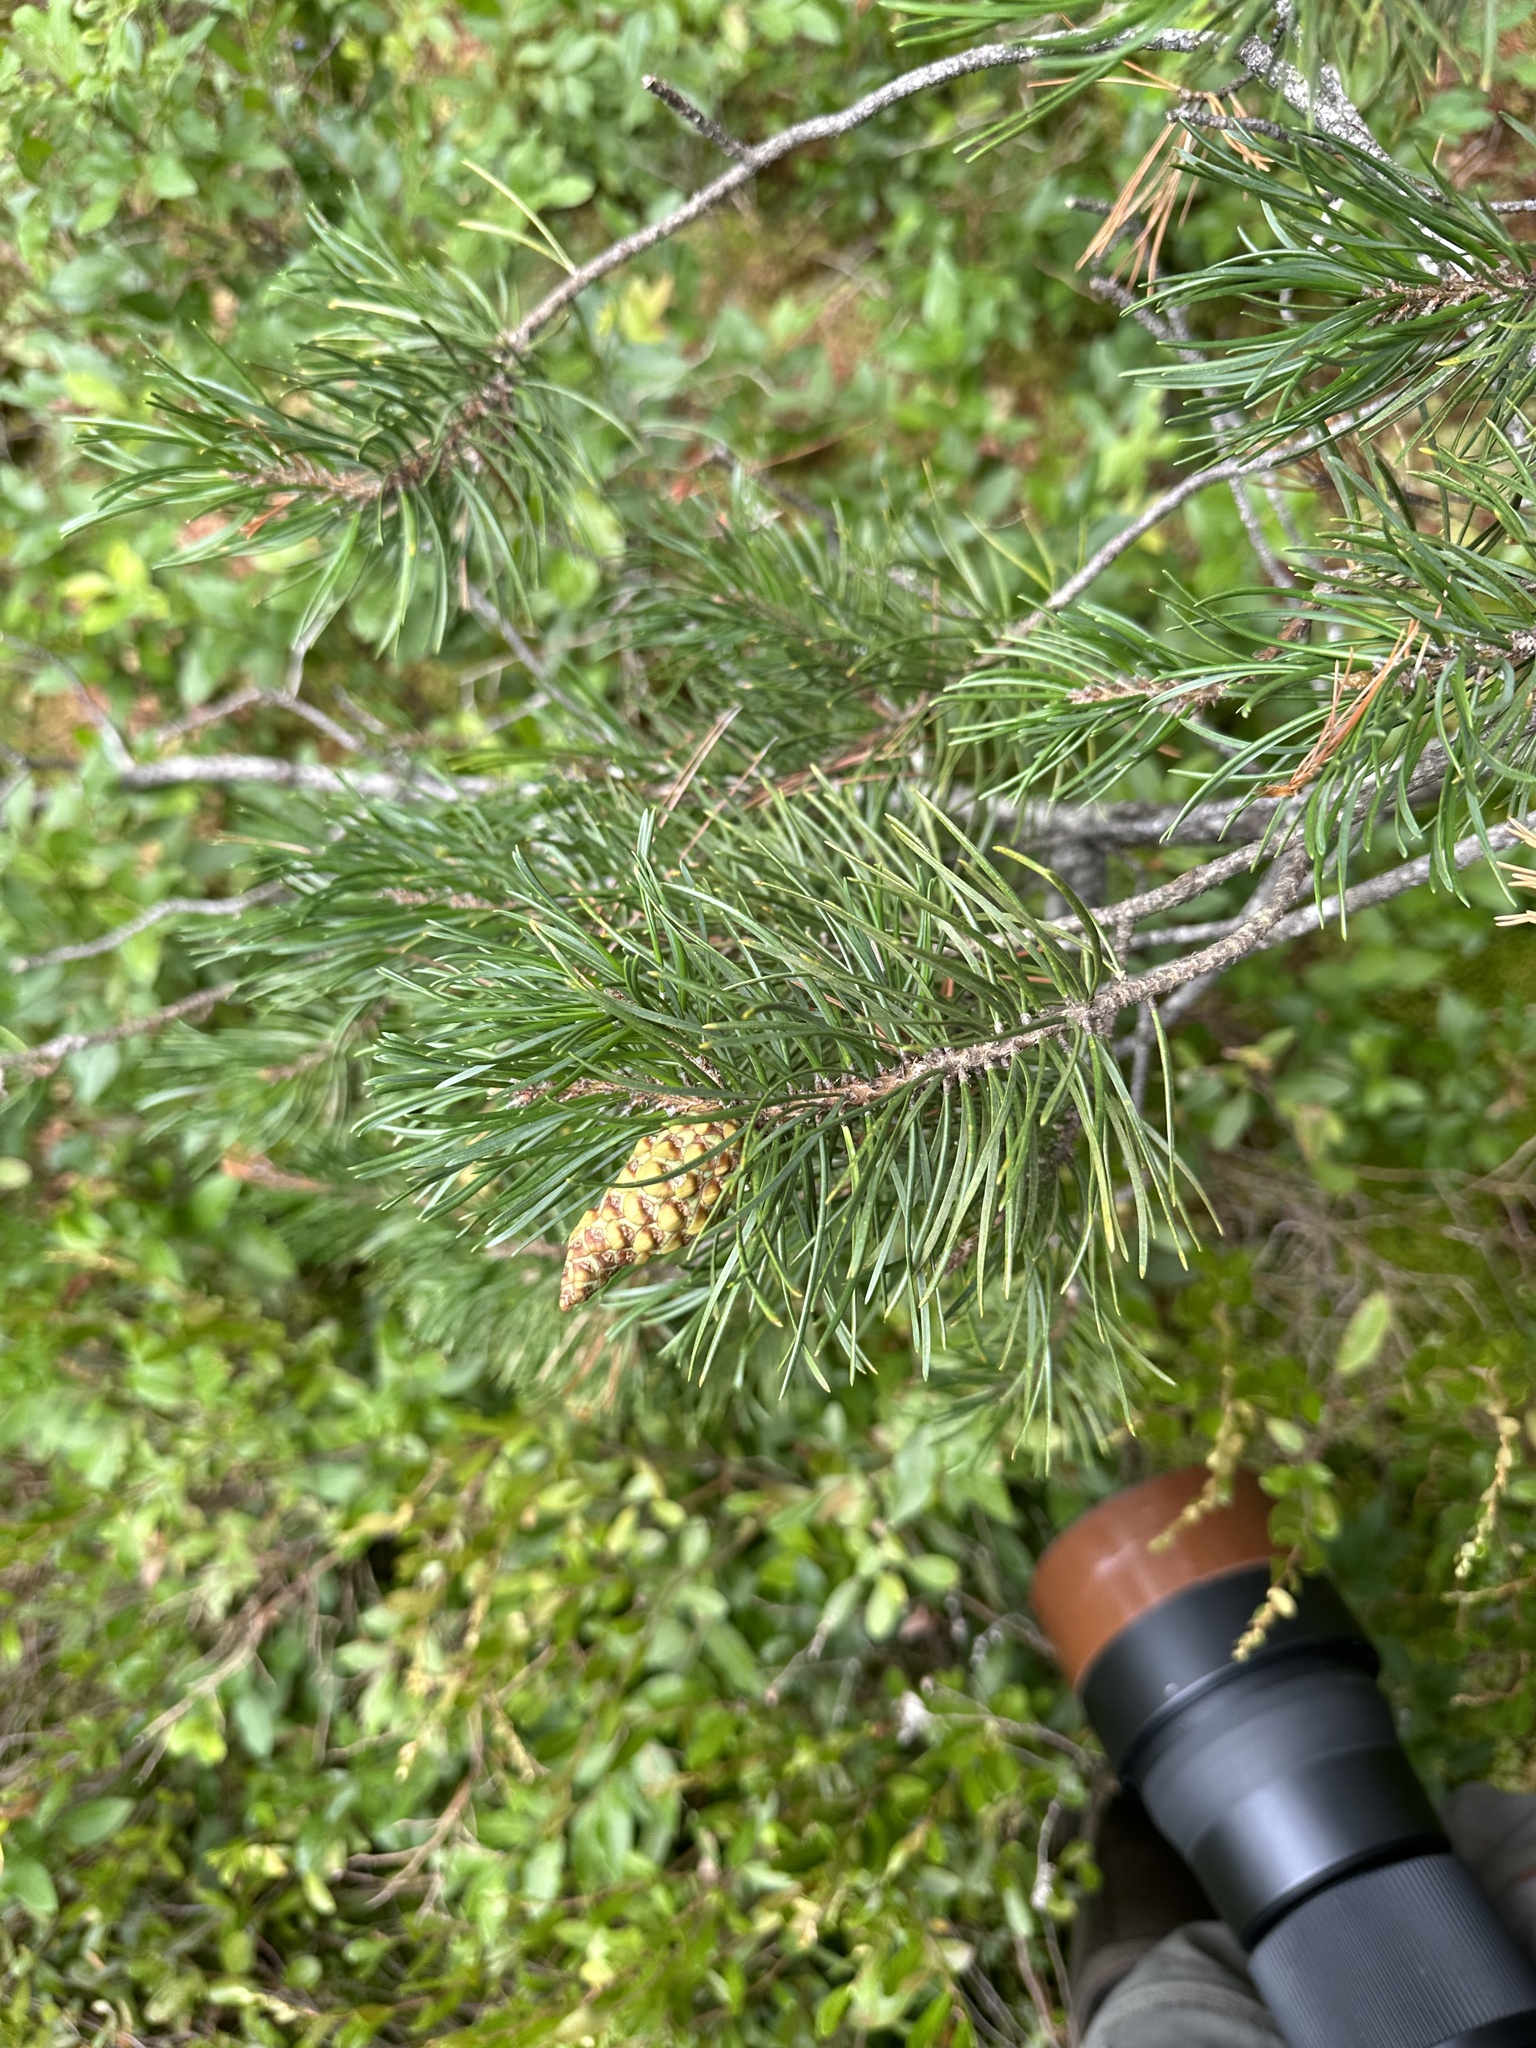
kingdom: Plantae
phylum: Tracheophyta
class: Pinopsida
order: Pinales
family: Pinaceae
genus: Pinus
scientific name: Pinus banksiana
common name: Jack pine
